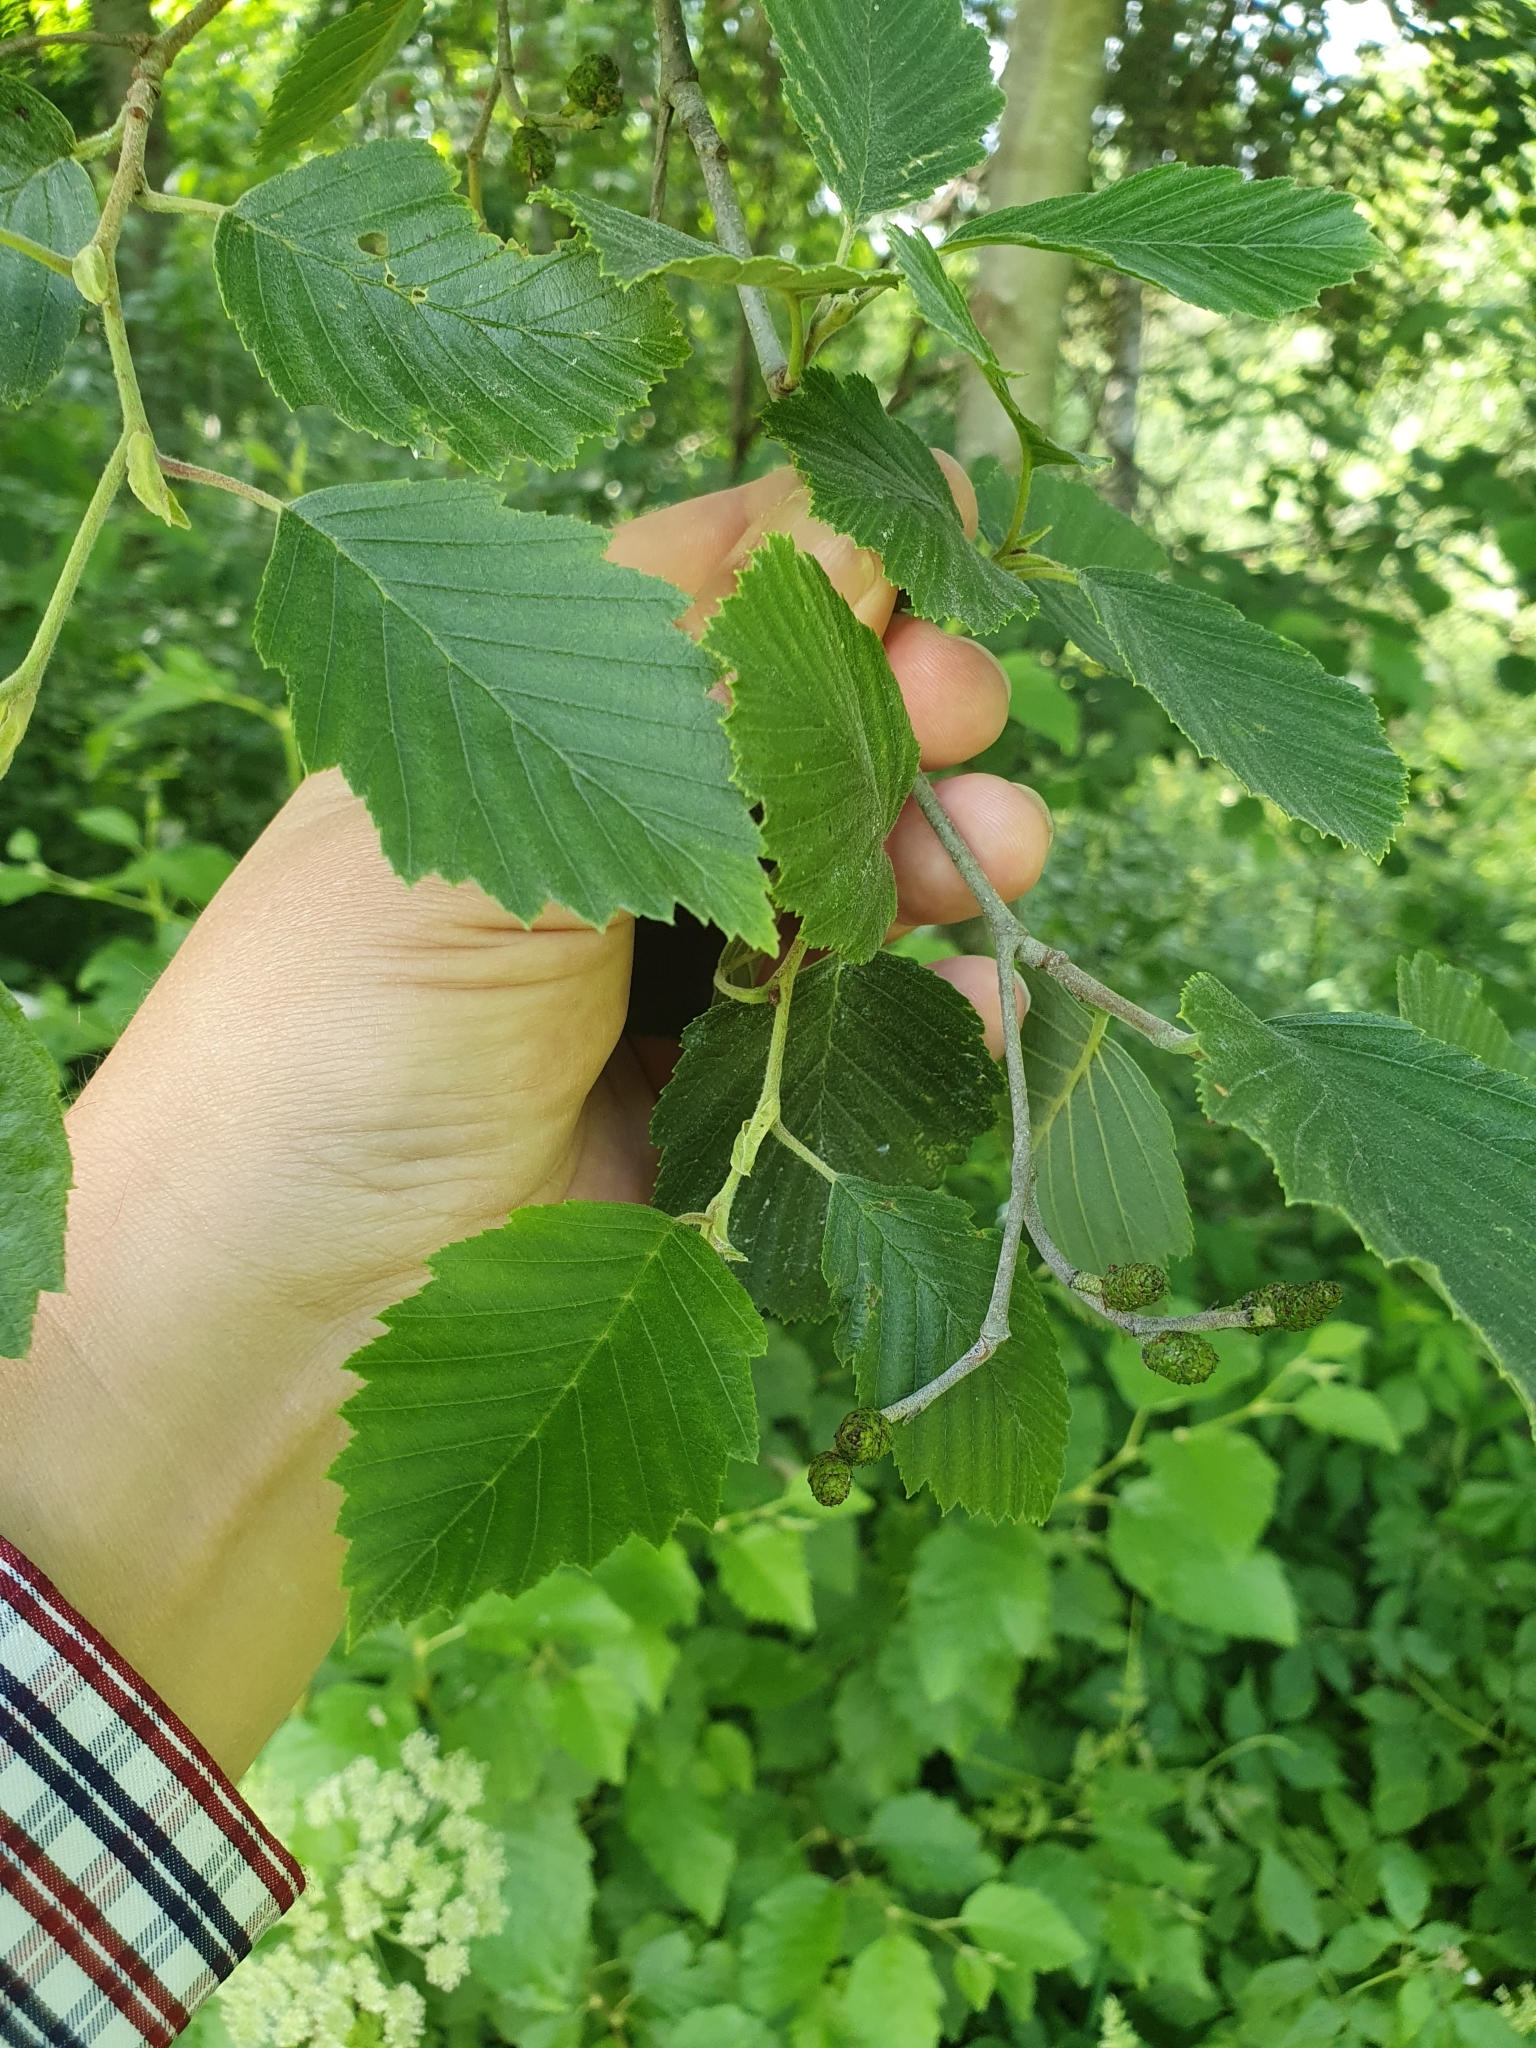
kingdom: Plantae
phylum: Tracheophyta
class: Magnoliopsida
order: Fagales
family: Betulaceae
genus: Alnus
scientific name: Alnus incana
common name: Grey alder
